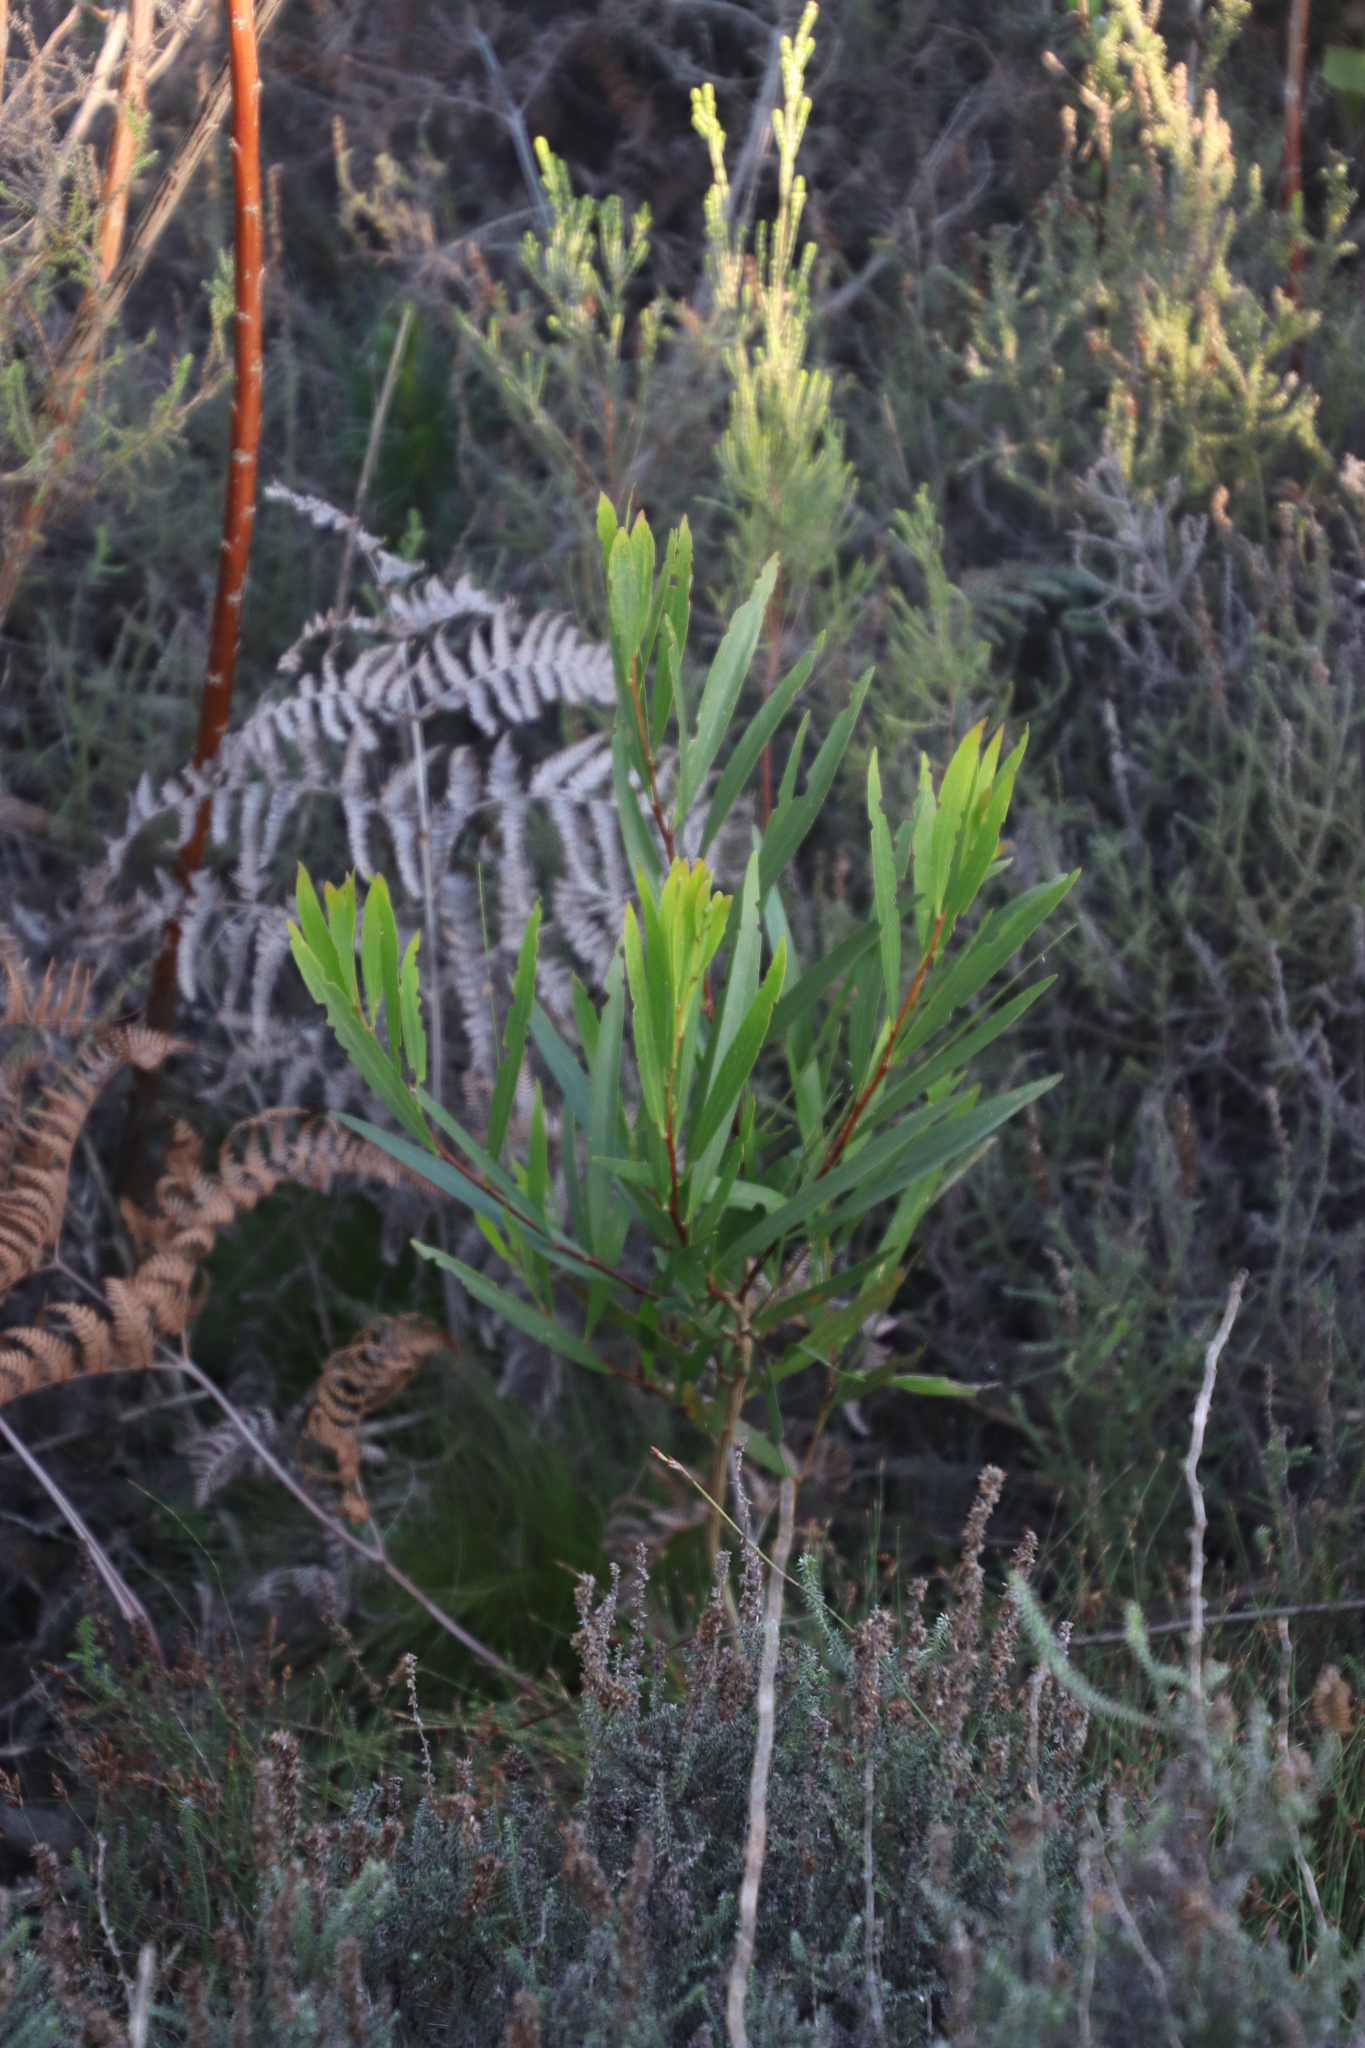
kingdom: Plantae
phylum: Tracheophyta
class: Magnoliopsida
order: Fabales
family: Fabaceae
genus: Acacia
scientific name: Acacia longifolia
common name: Sydney golden wattle
